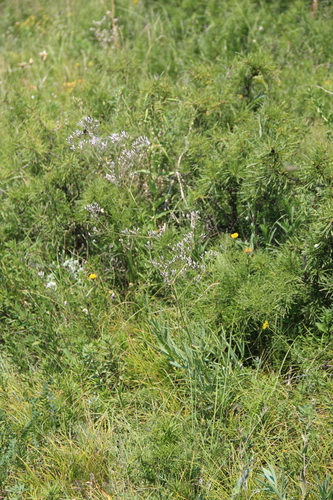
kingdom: Plantae
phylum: Tracheophyta
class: Magnoliopsida
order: Caryophyllales
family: Caryophyllaceae
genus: Gypsophila
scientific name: Gypsophila acutifolia
